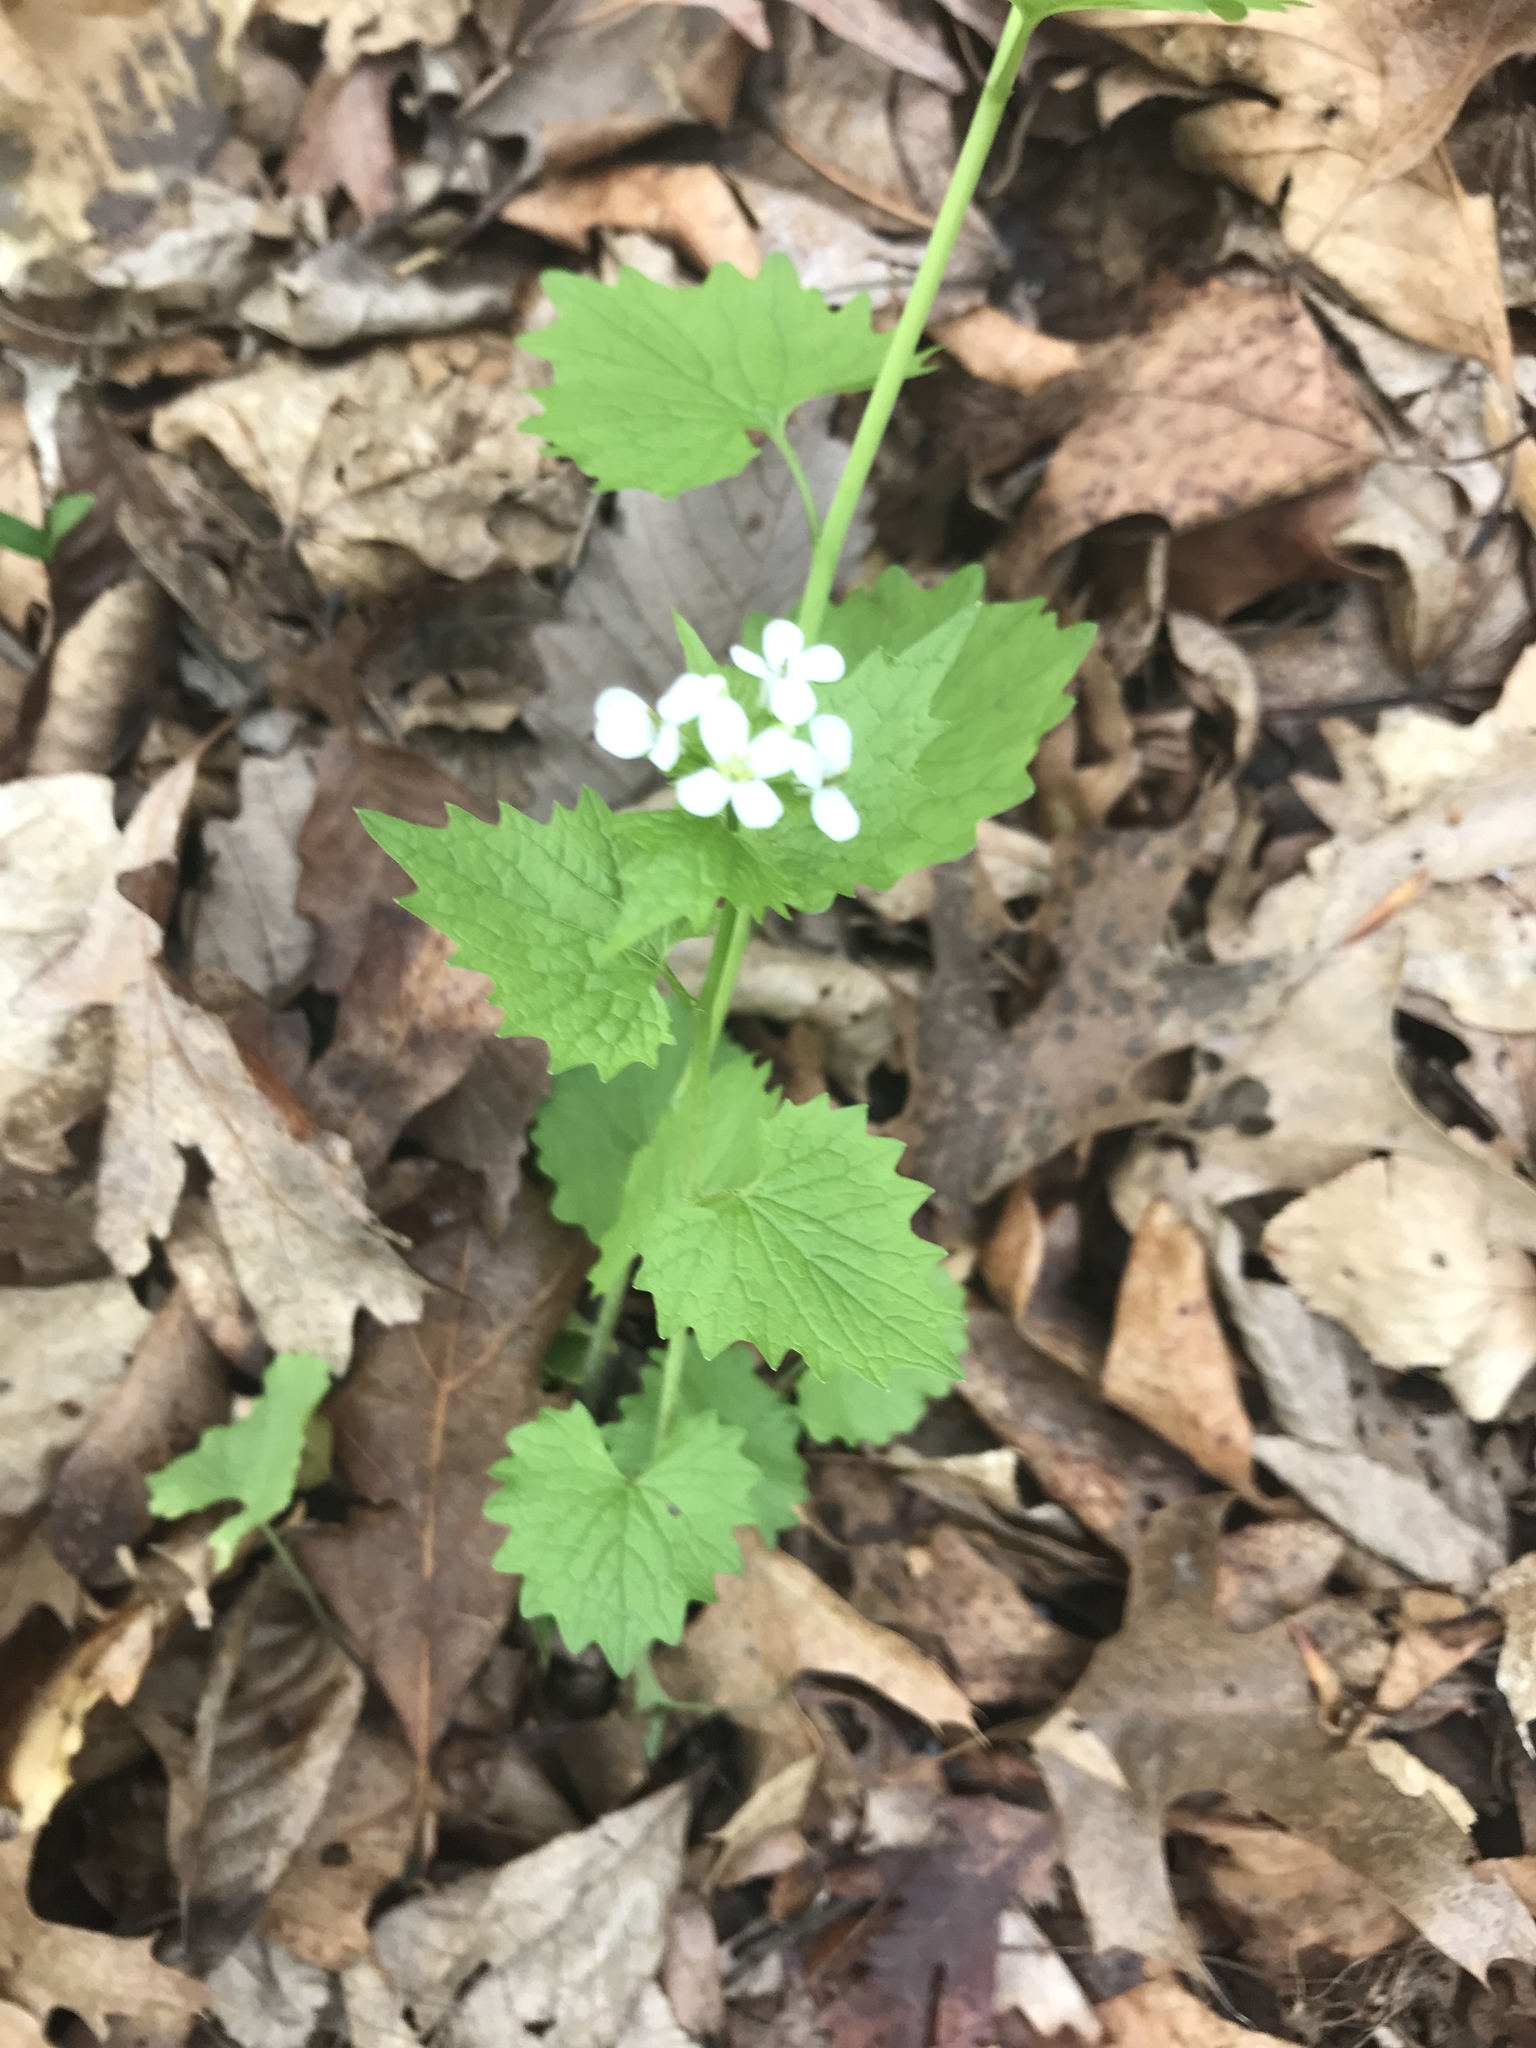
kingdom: Plantae
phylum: Tracheophyta
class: Magnoliopsida
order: Brassicales
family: Brassicaceae
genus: Alliaria
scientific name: Alliaria petiolata
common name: Garlic mustard
